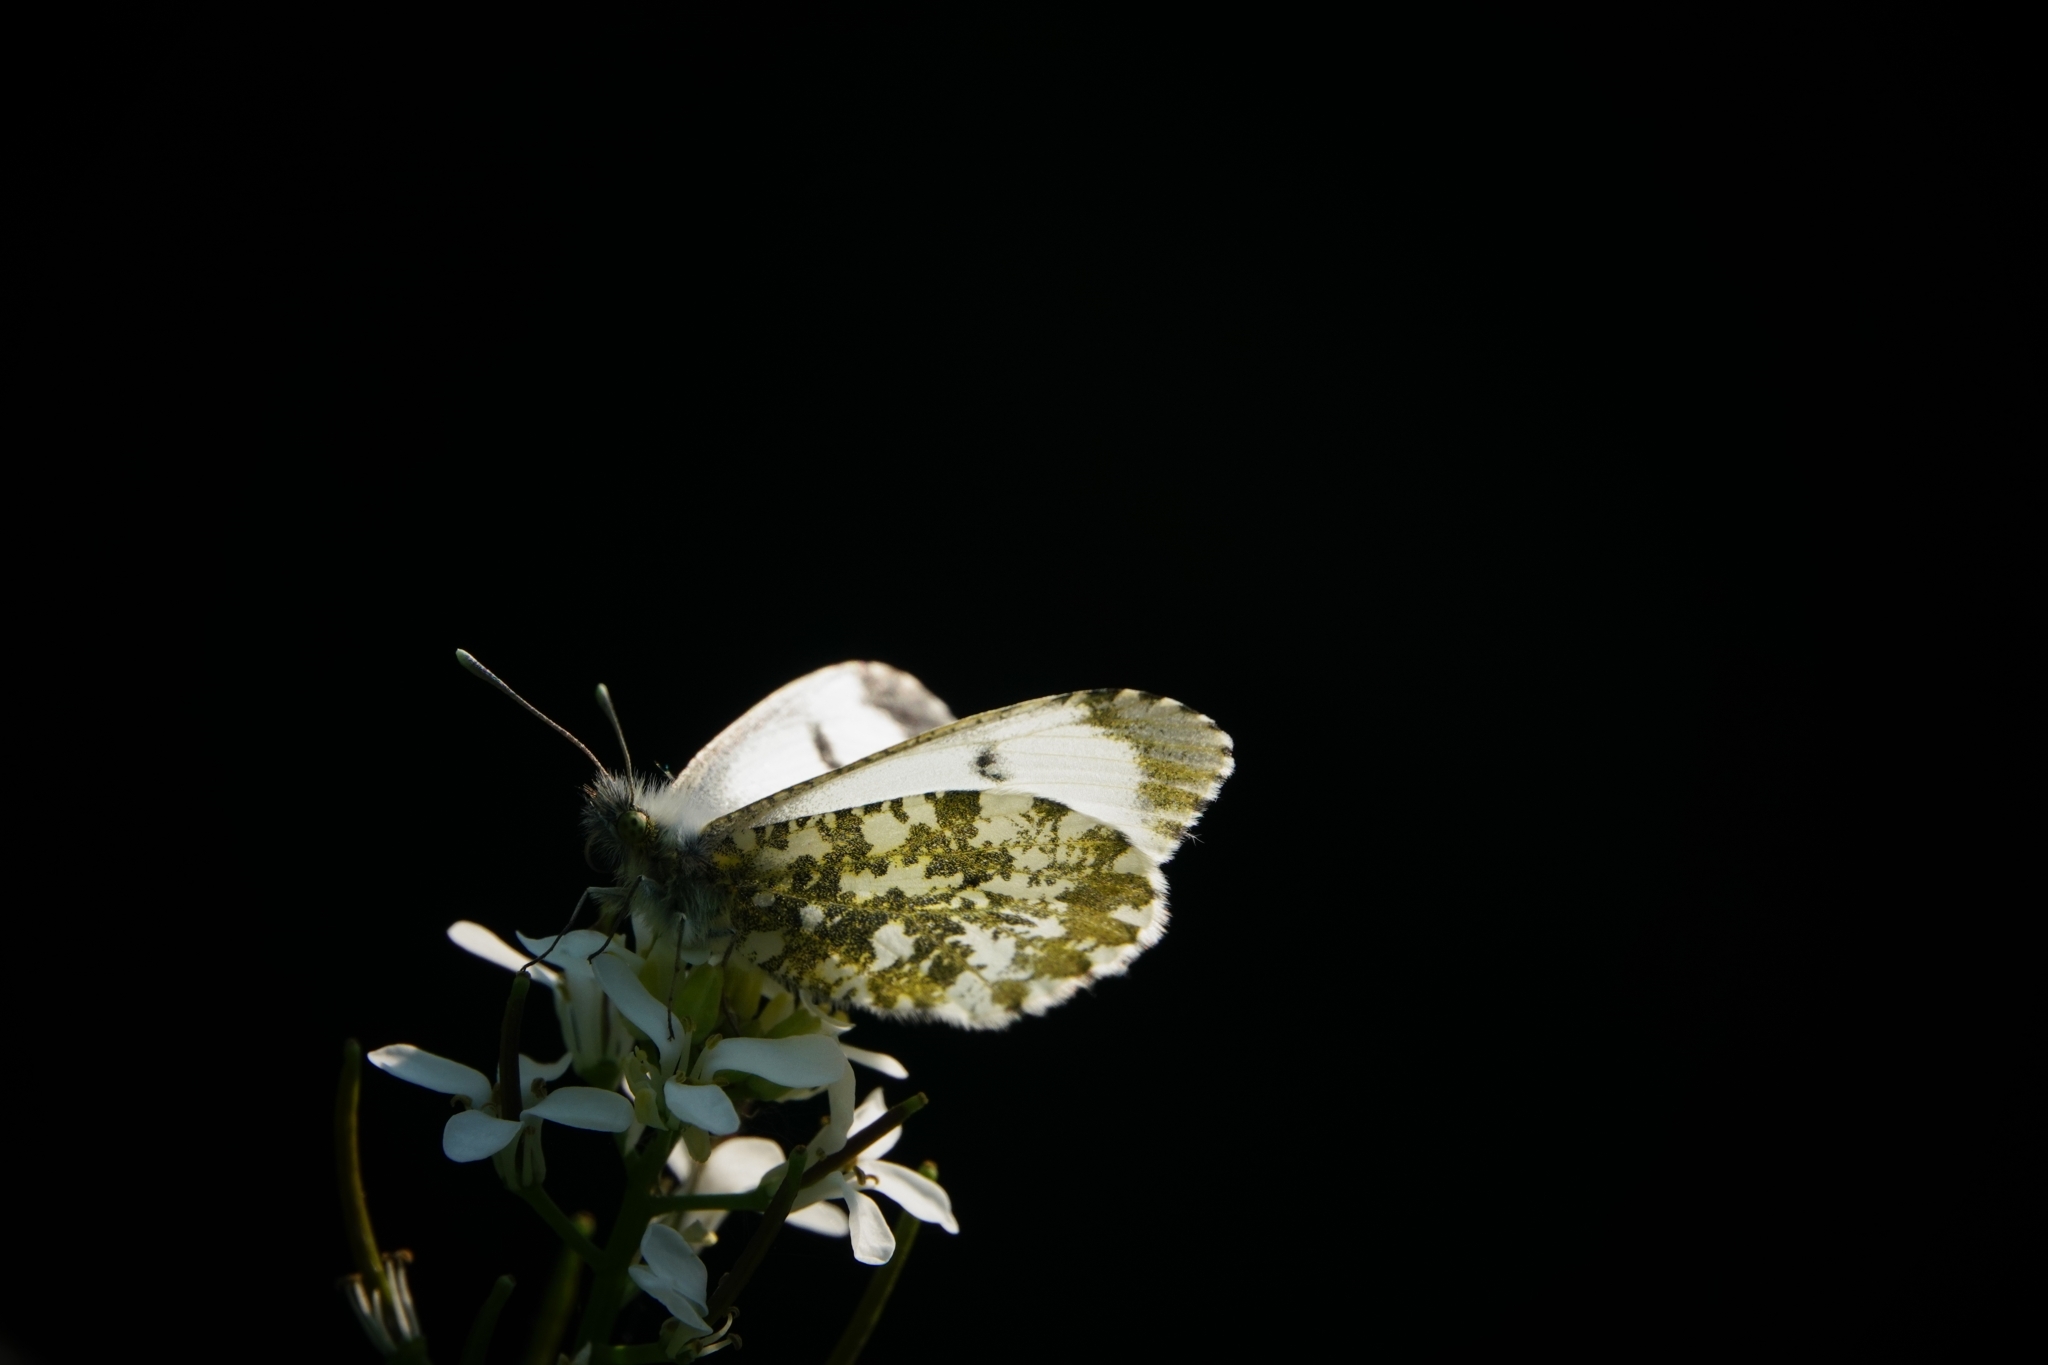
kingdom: Animalia
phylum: Arthropoda
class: Insecta
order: Lepidoptera
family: Pieridae
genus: Anthocharis
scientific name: Anthocharis cardamines
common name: Orange-tip
